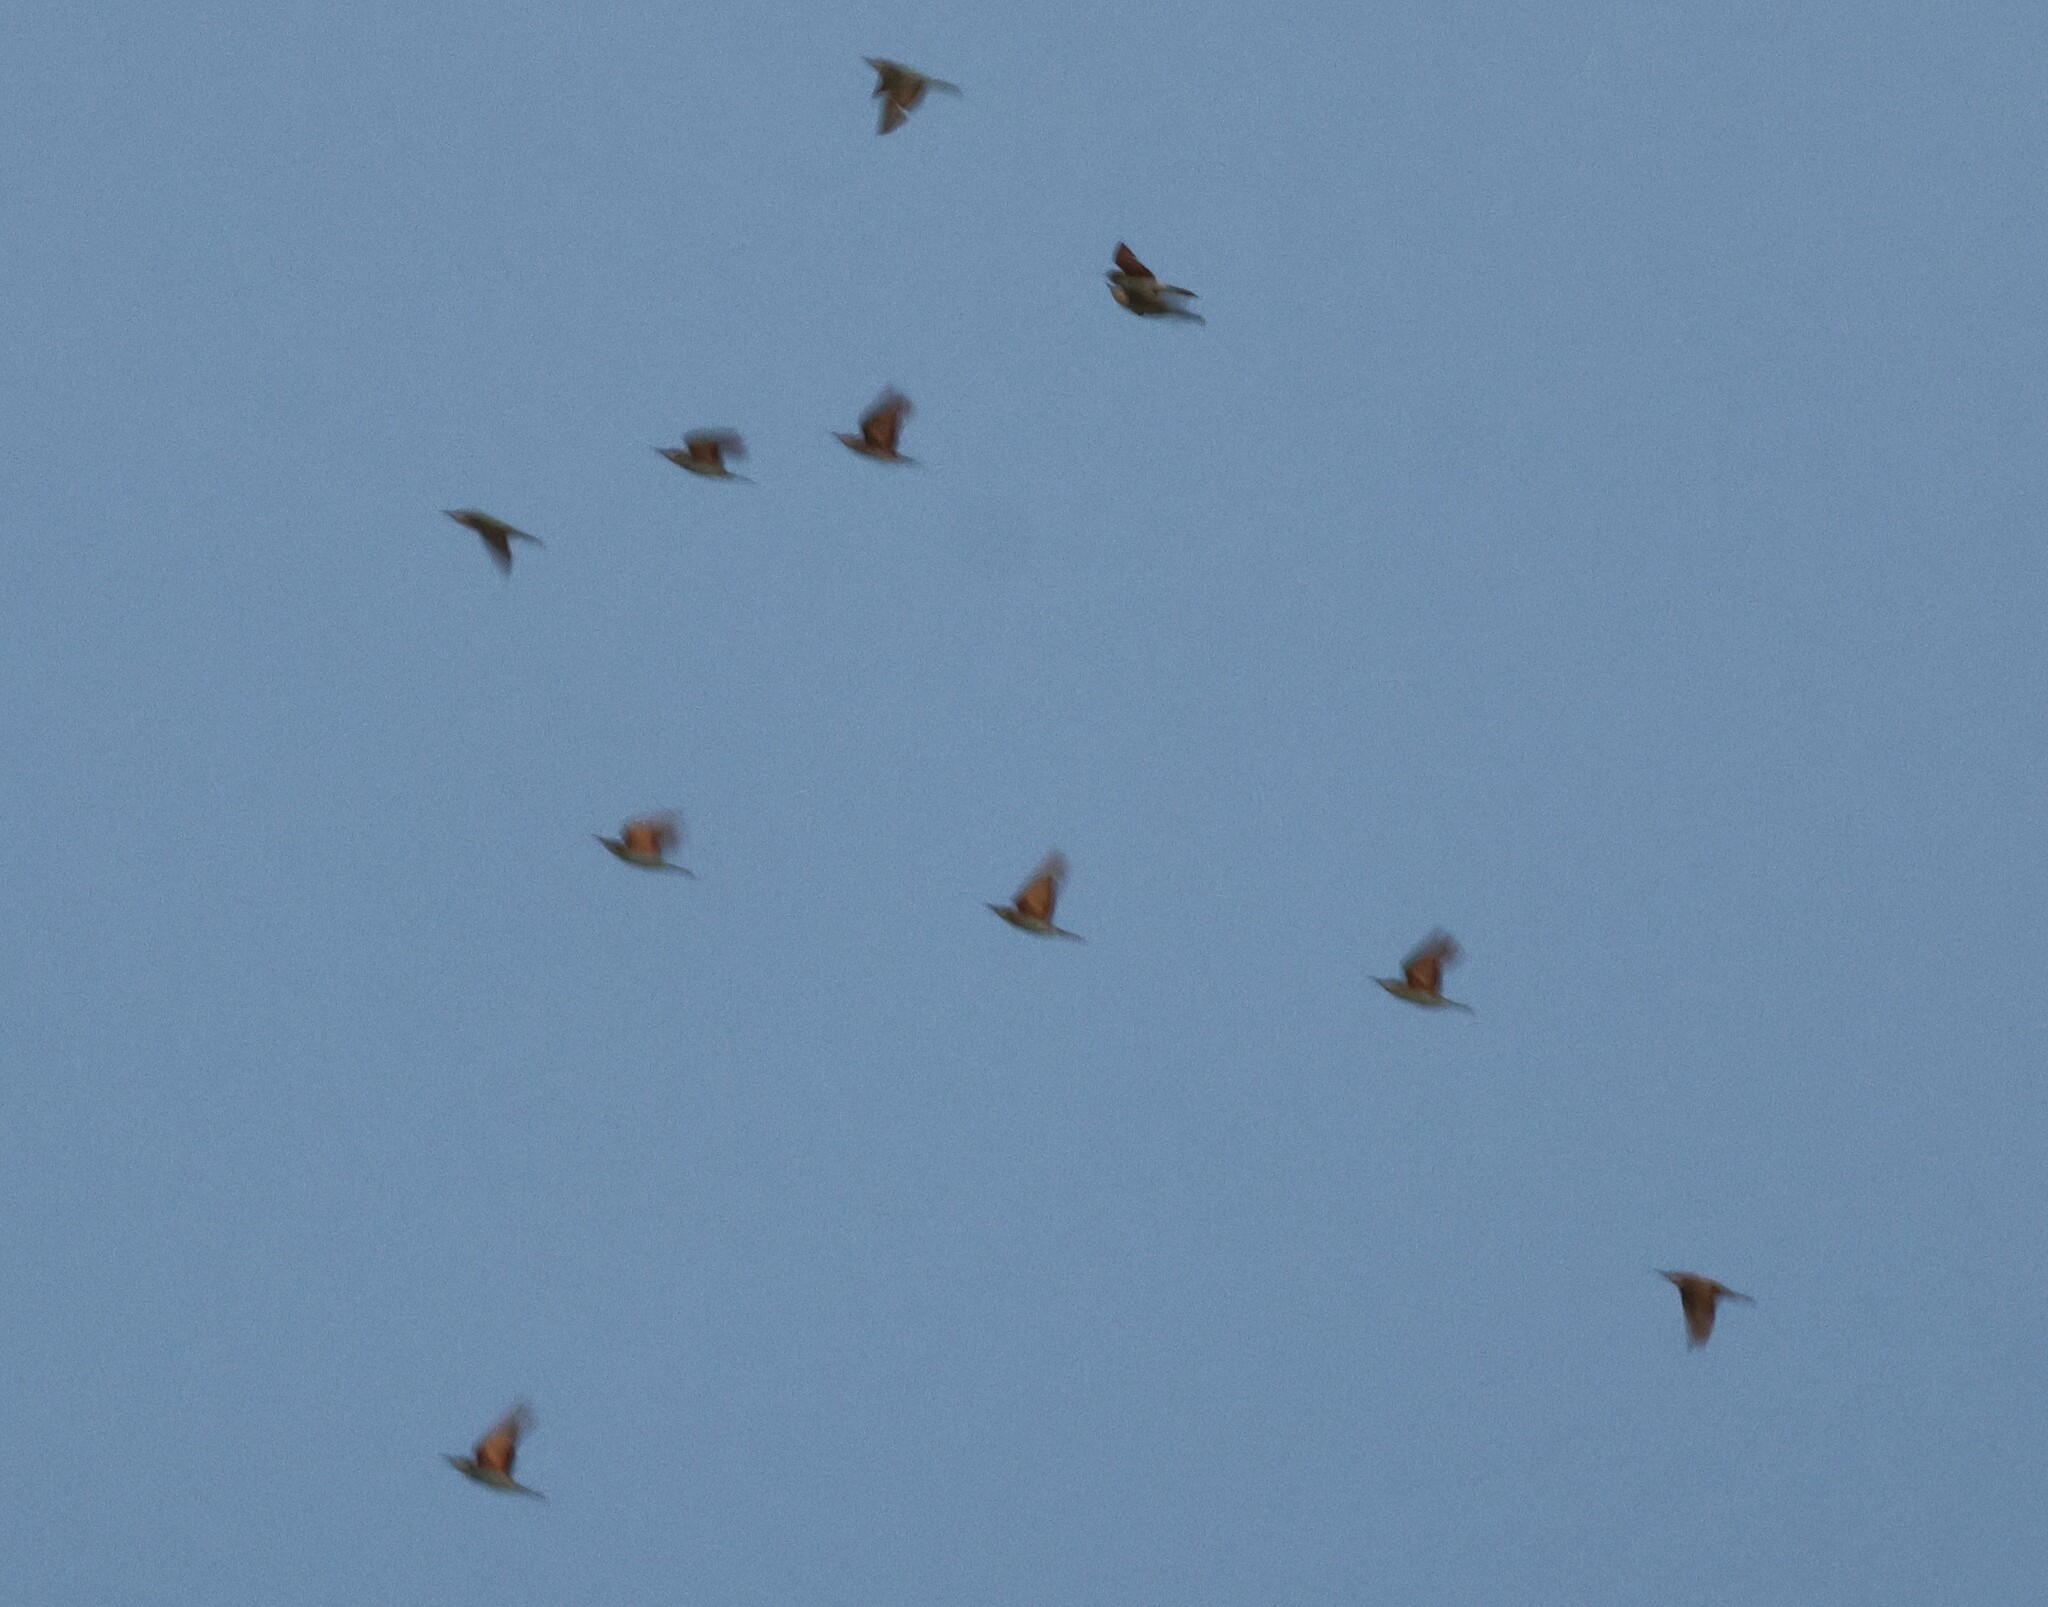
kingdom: Animalia
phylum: Chordata
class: Aves
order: Coraciiformes
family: Meropidae
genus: Merops
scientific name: Merops apiaster
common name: European bee-eater
